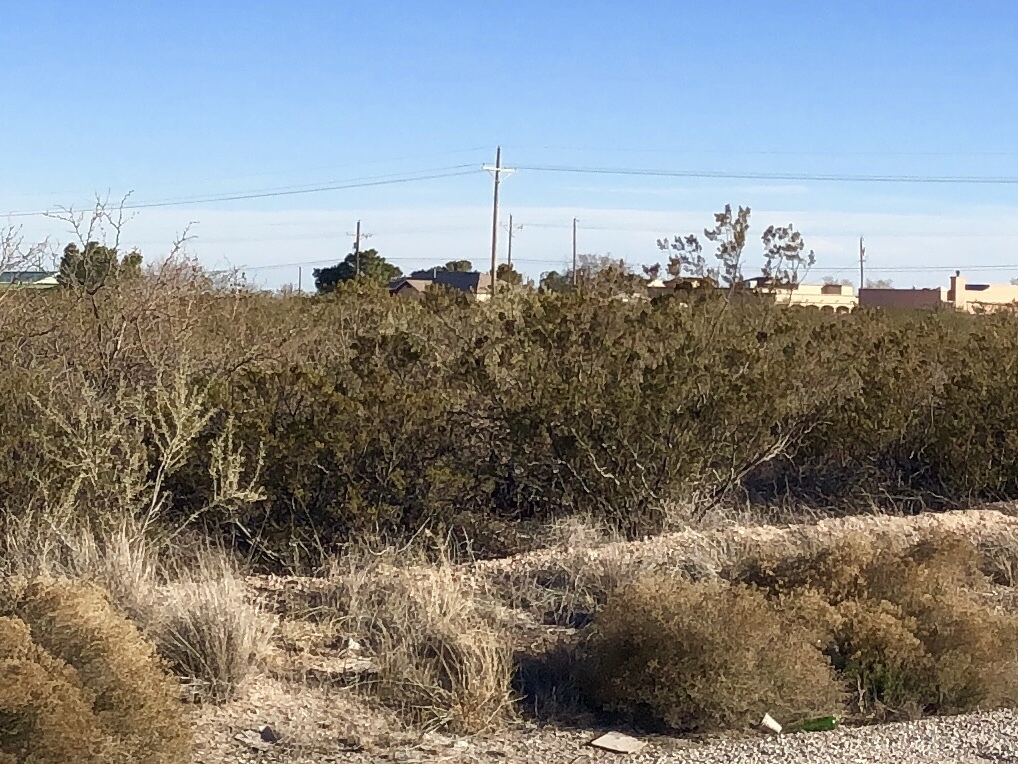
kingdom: Plantae
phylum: Tracheophyta
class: Magnoliopsida
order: Zygophyllales
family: Zygophyllaceae
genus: Larrea
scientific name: Larrea tridentata
